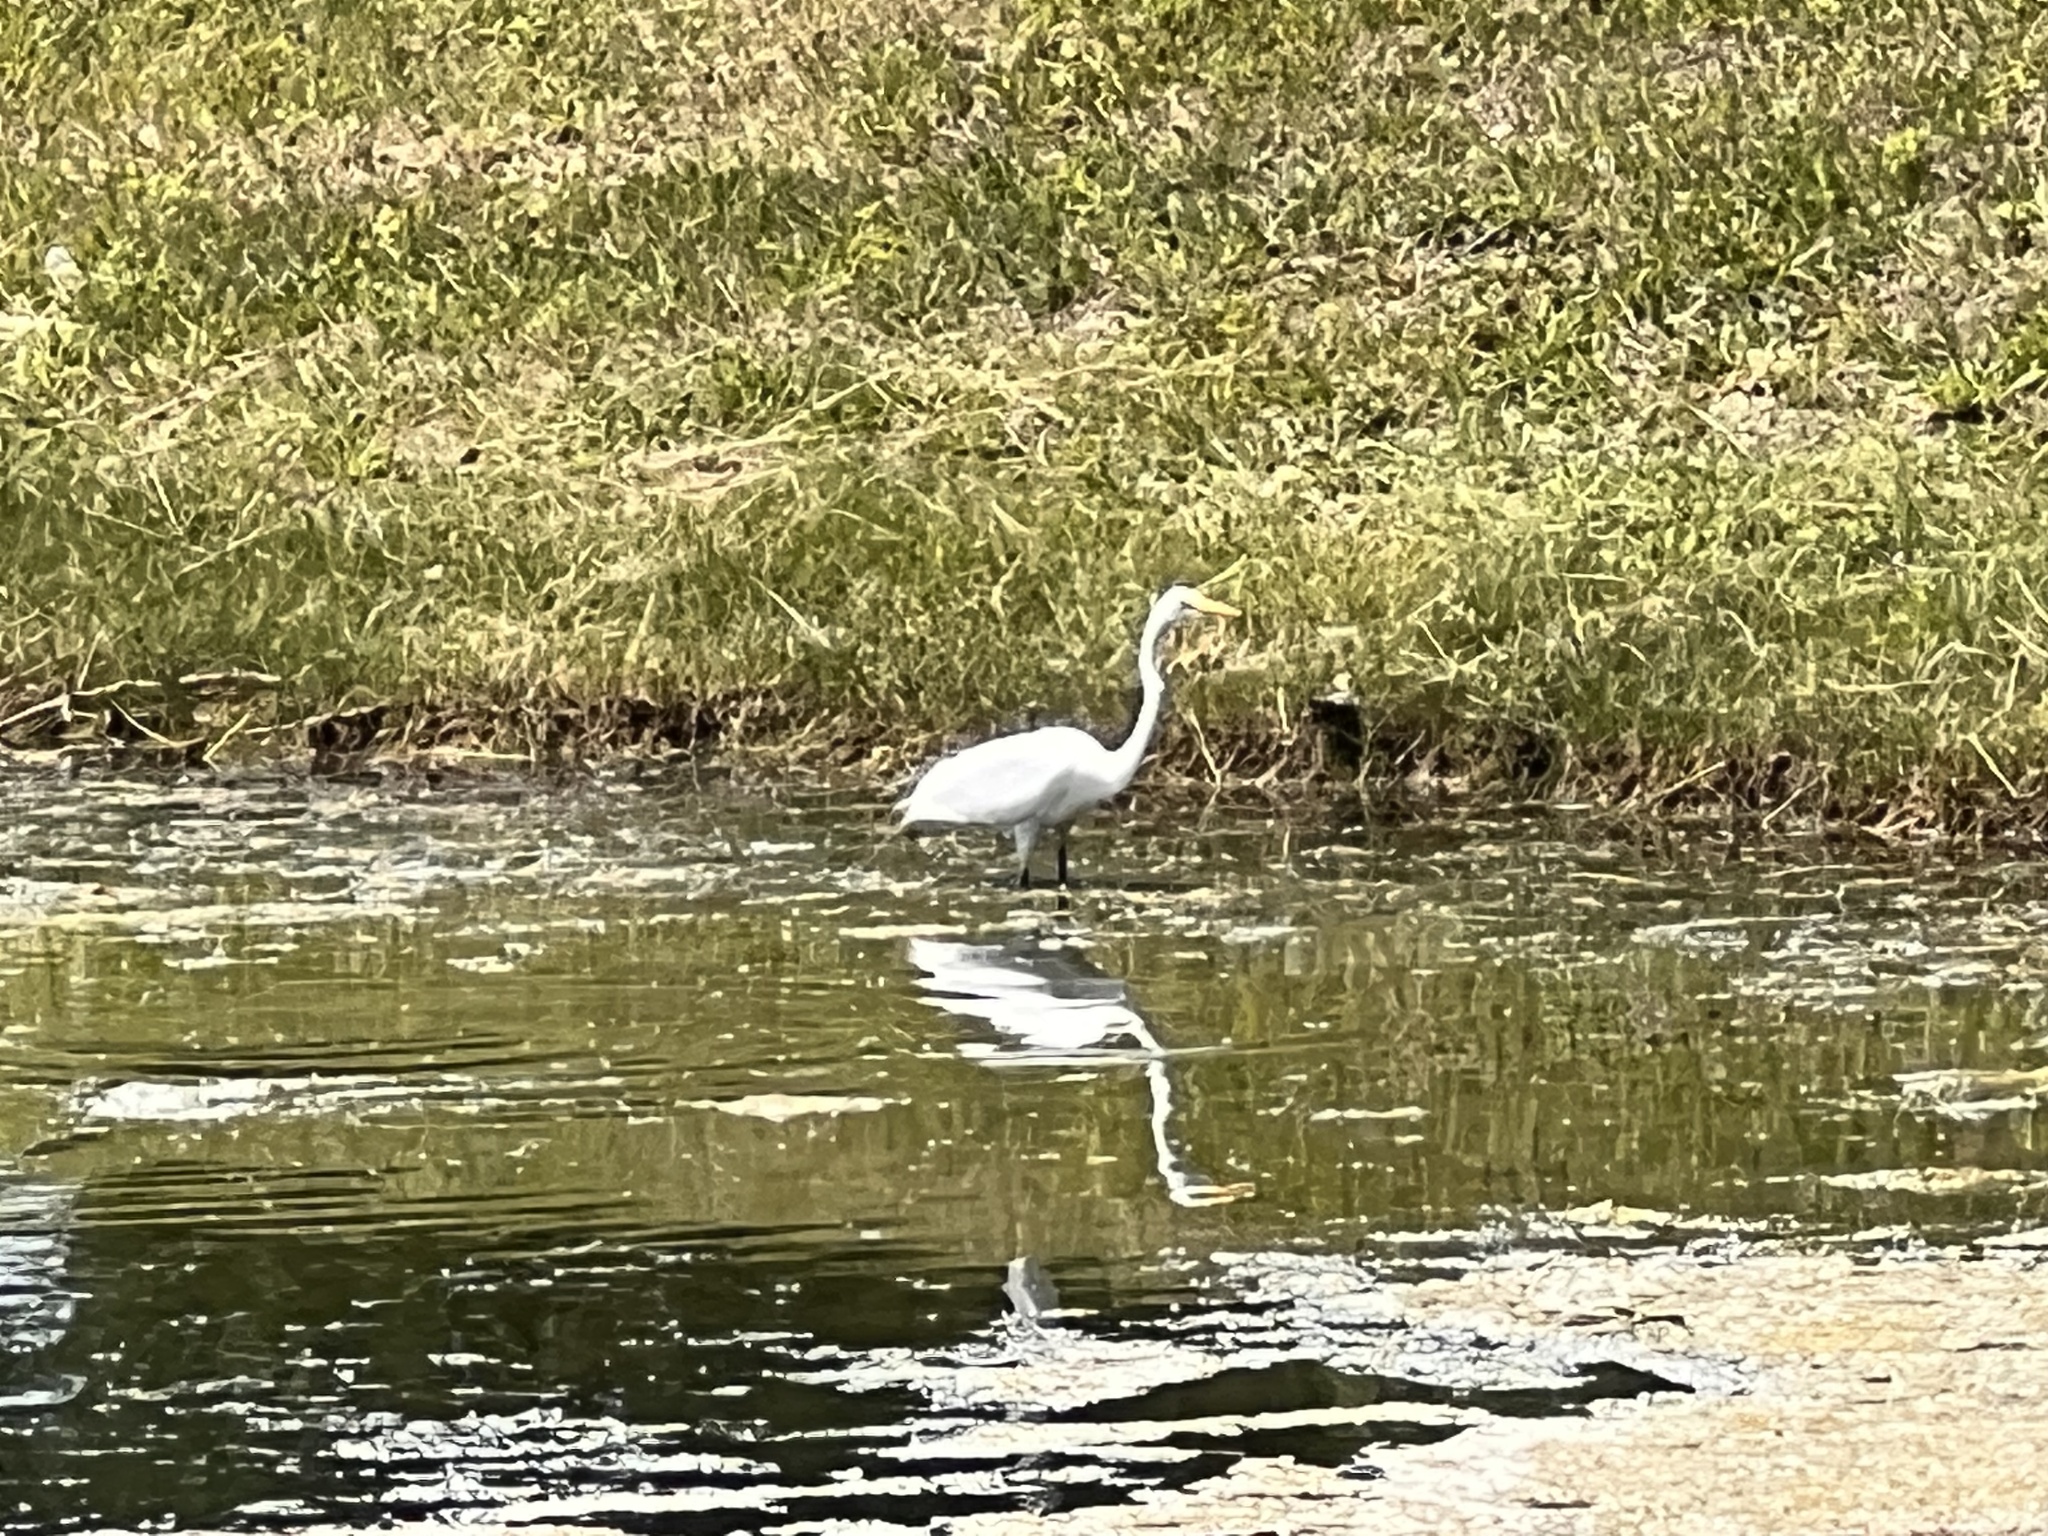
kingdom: Animalia
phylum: Chordata
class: Aves
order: Pelecaniformes
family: Ardeidae
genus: Ardea
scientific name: Ardea alba
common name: Great egret
